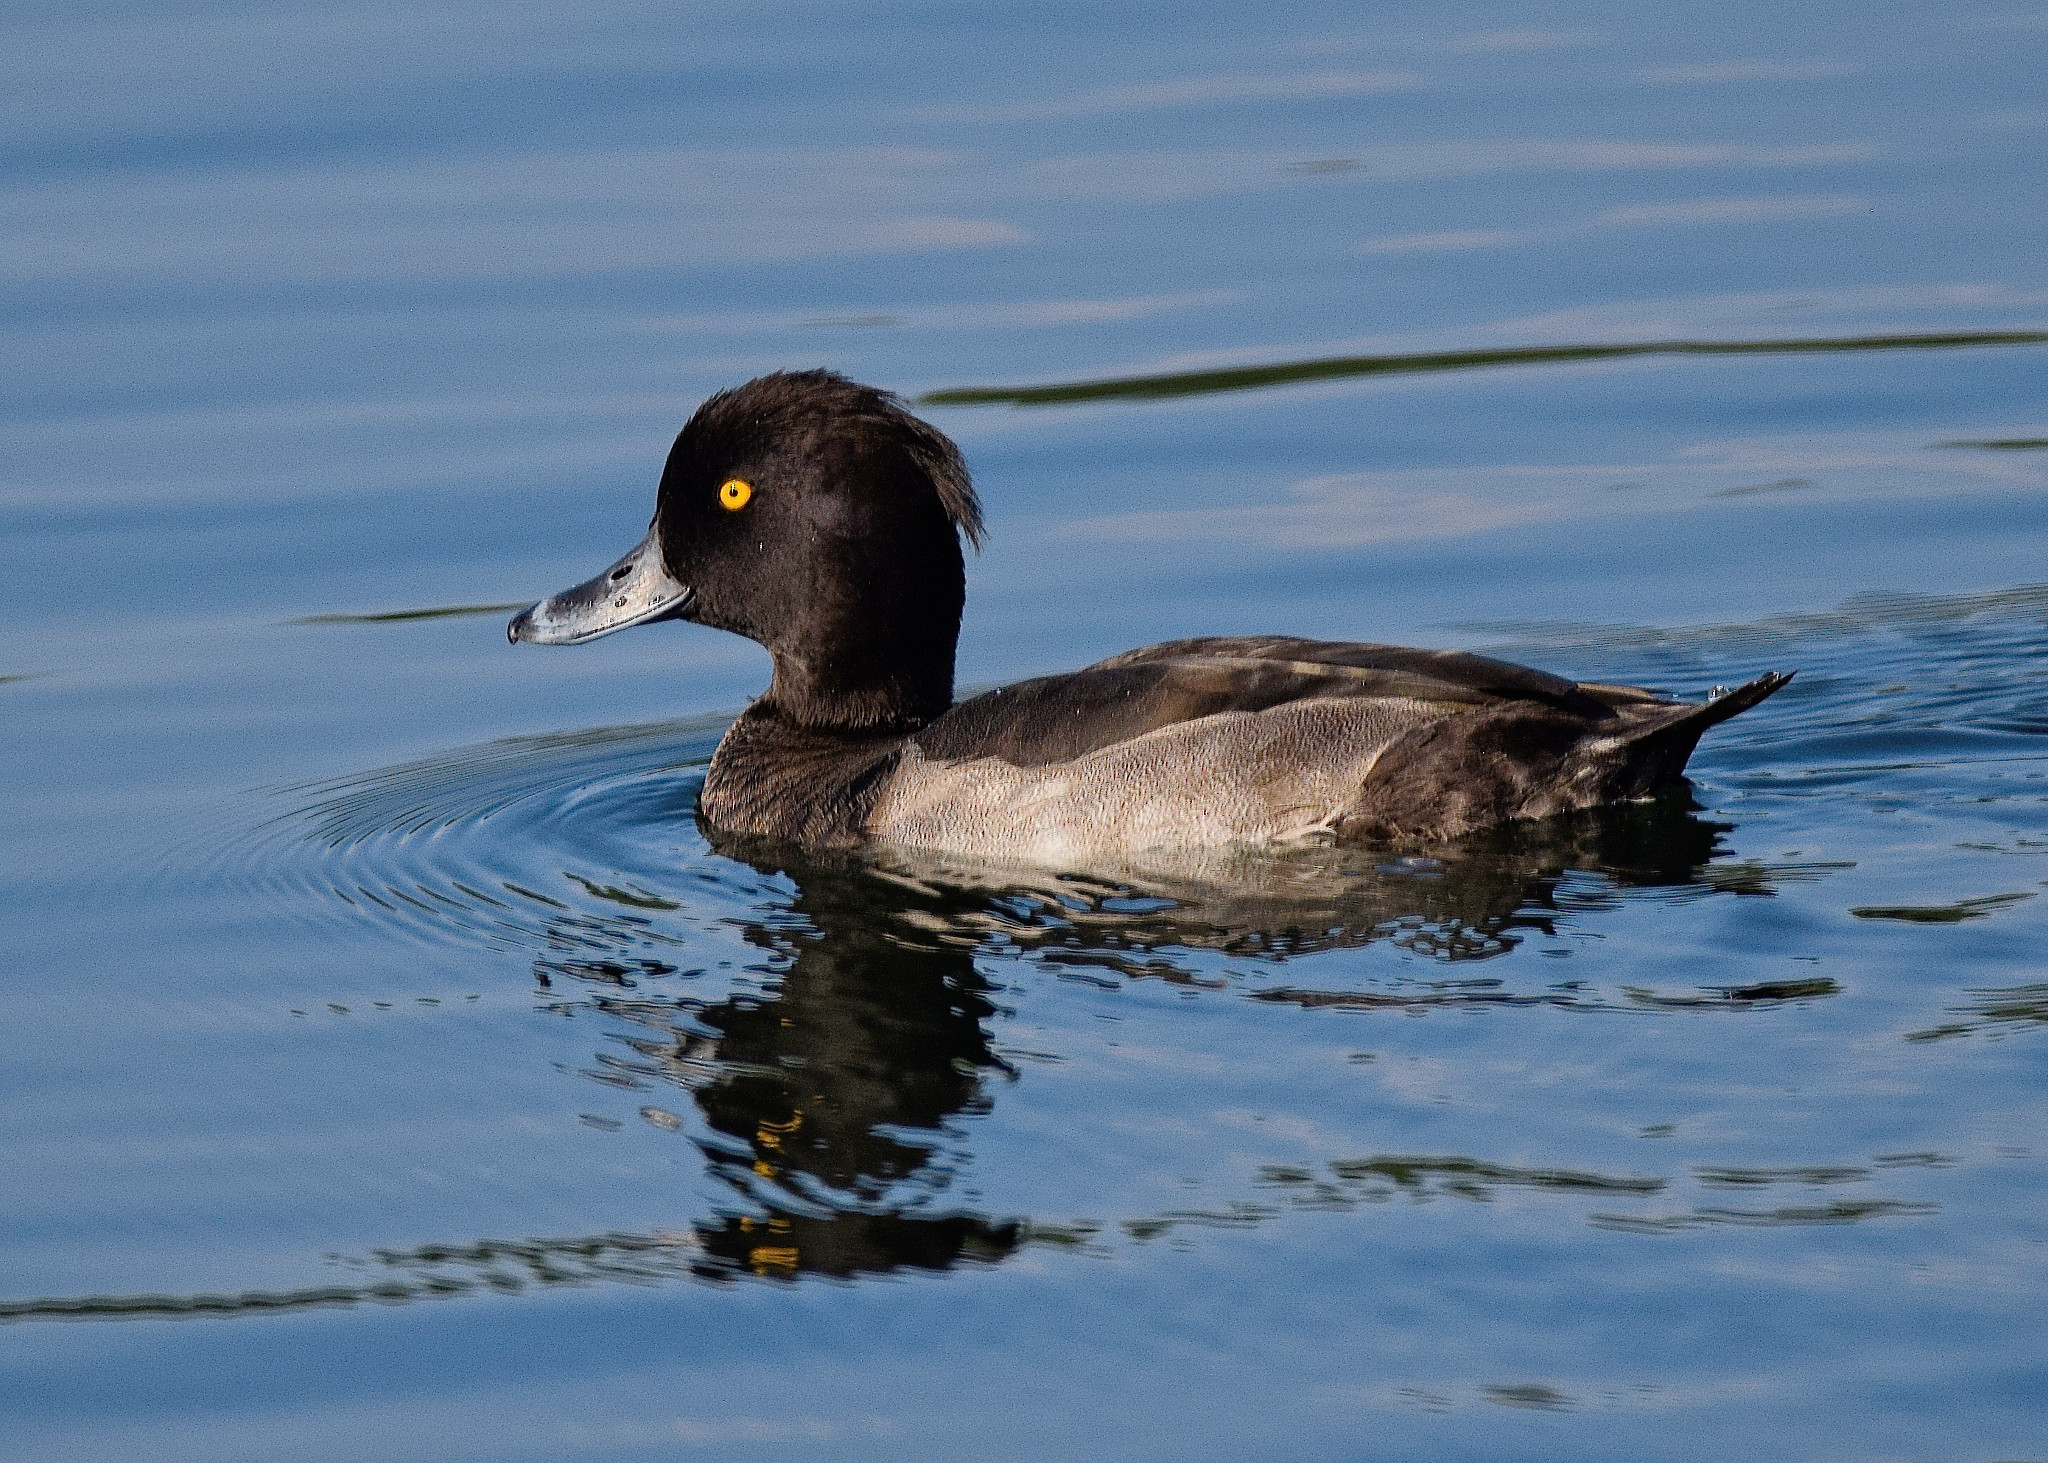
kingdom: Animalia
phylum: Chordata
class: Aves
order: Anseriformes
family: Anatidae
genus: Aythya
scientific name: Aythya fuligula
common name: Tufted duck
